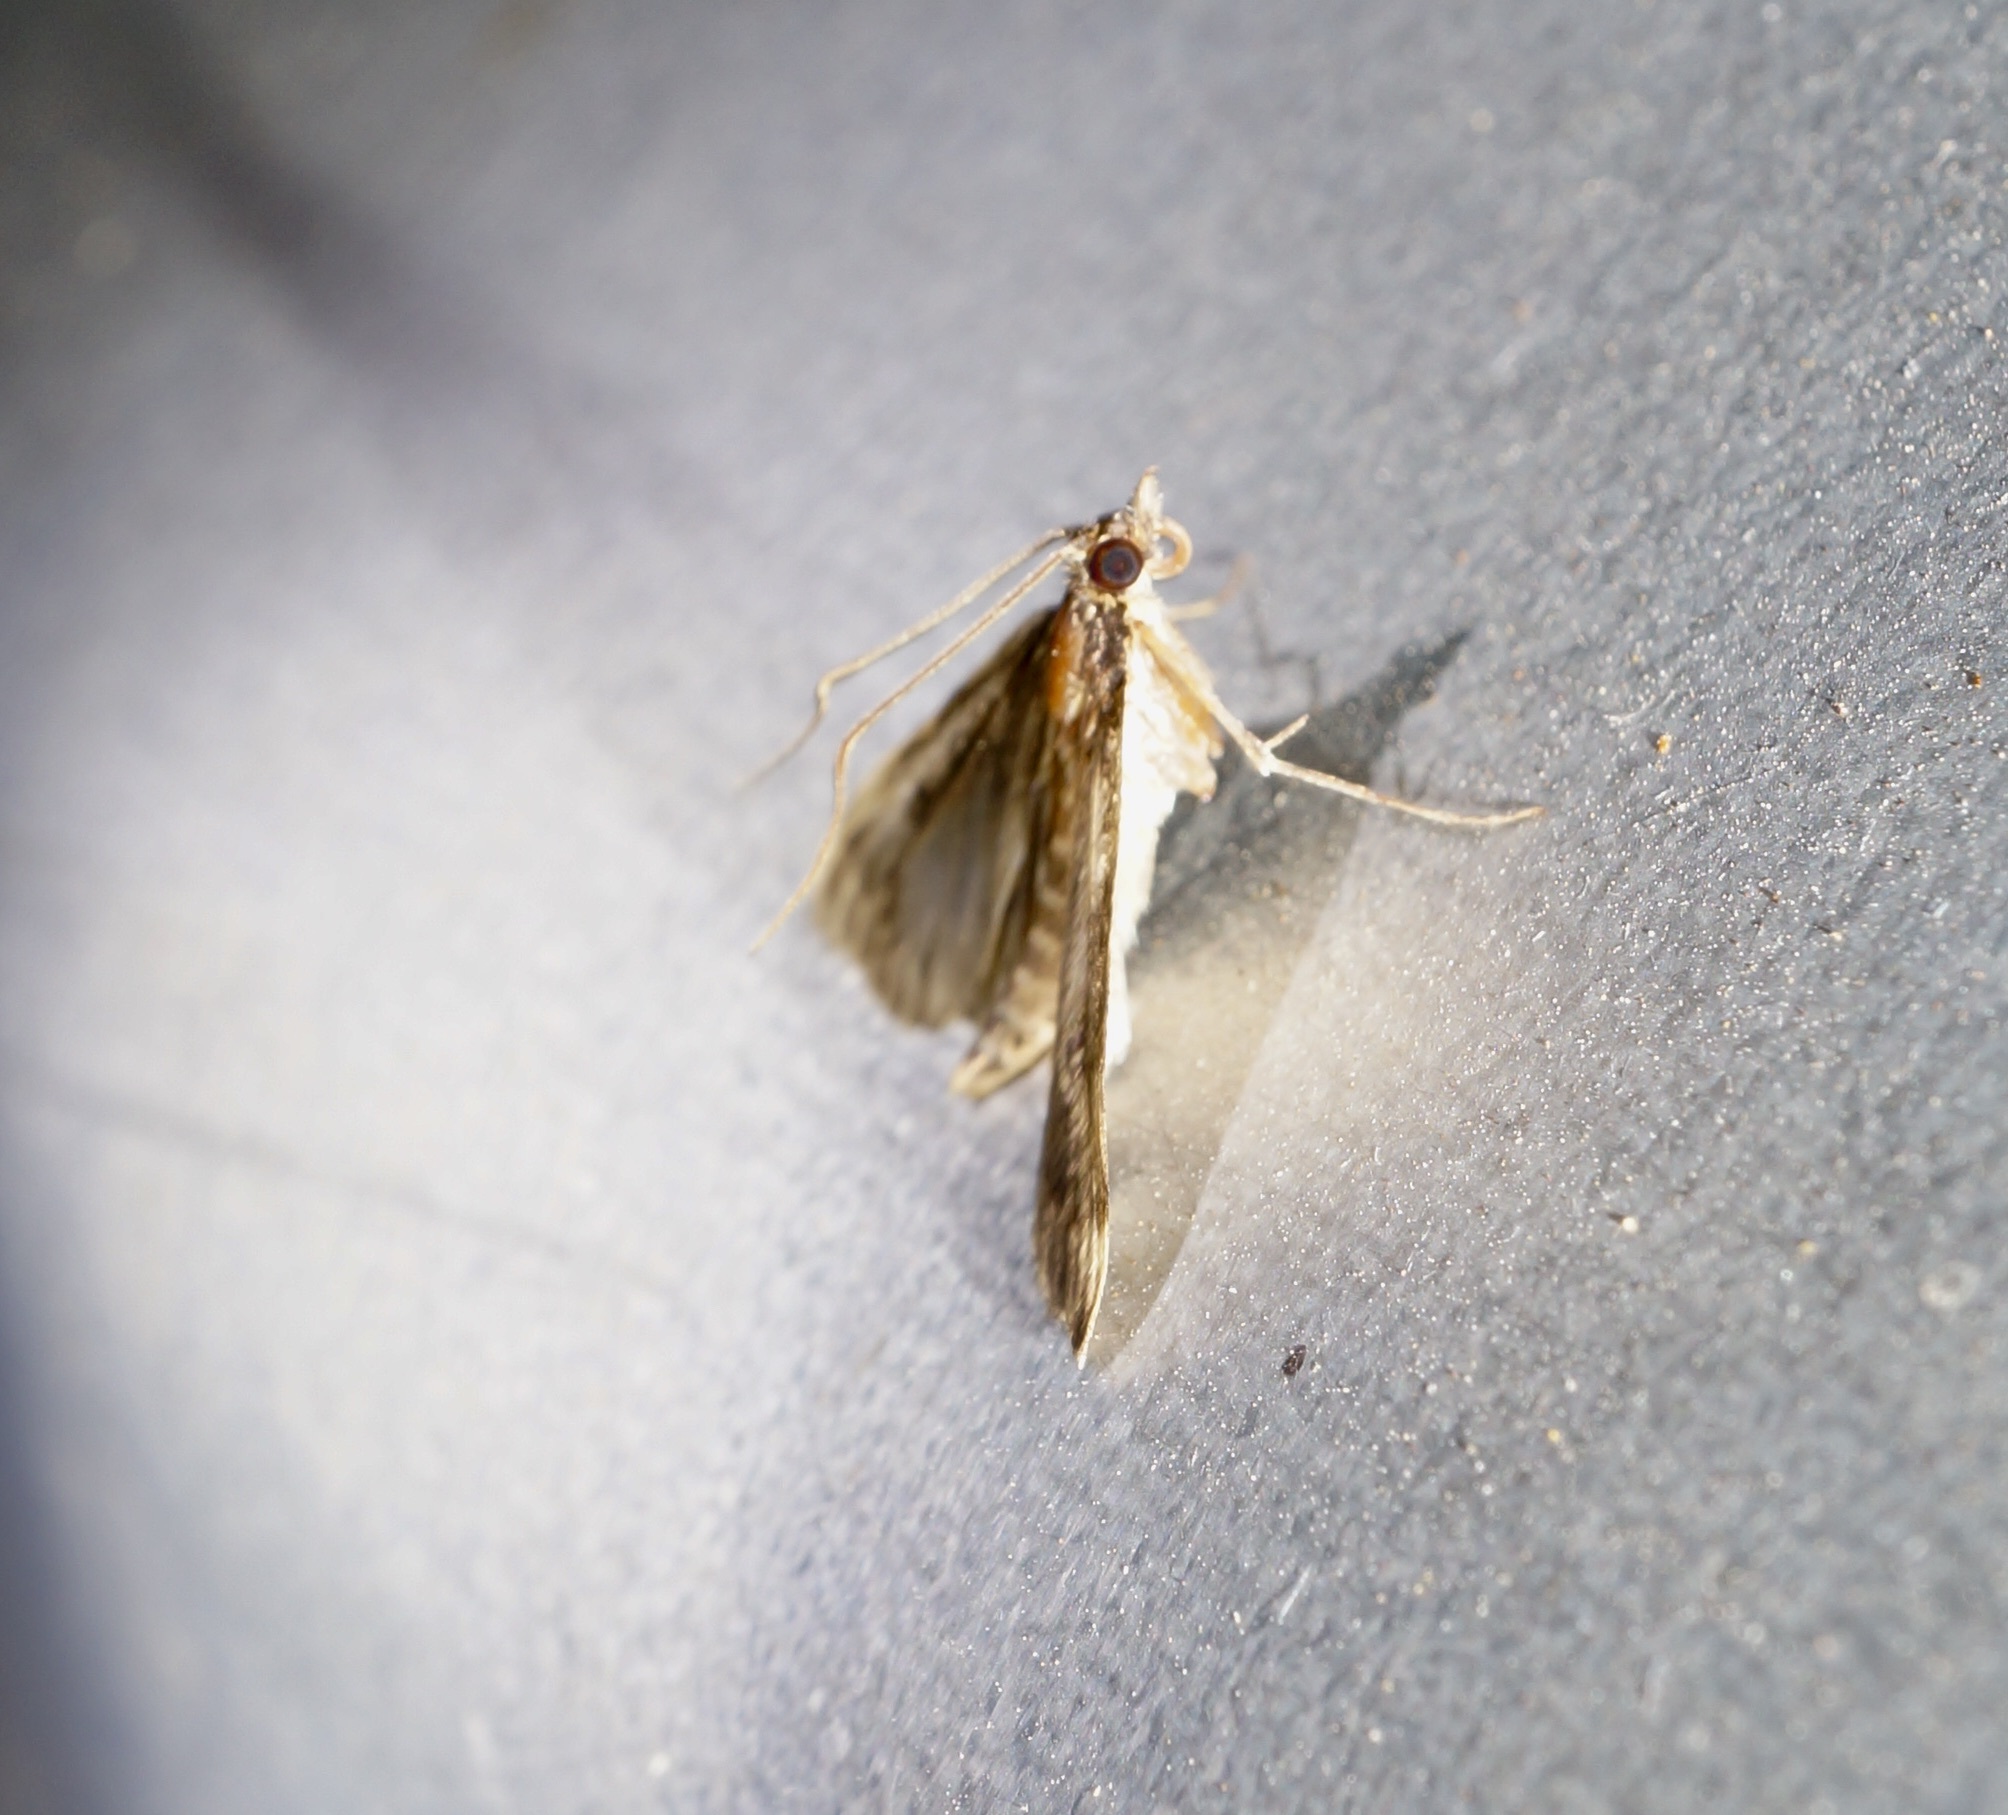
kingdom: Animalia
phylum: Arthropoda
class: Insecta
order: Lepidoptera
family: Crambidae
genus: Loxostege
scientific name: Loxostege Proternia philocapna
